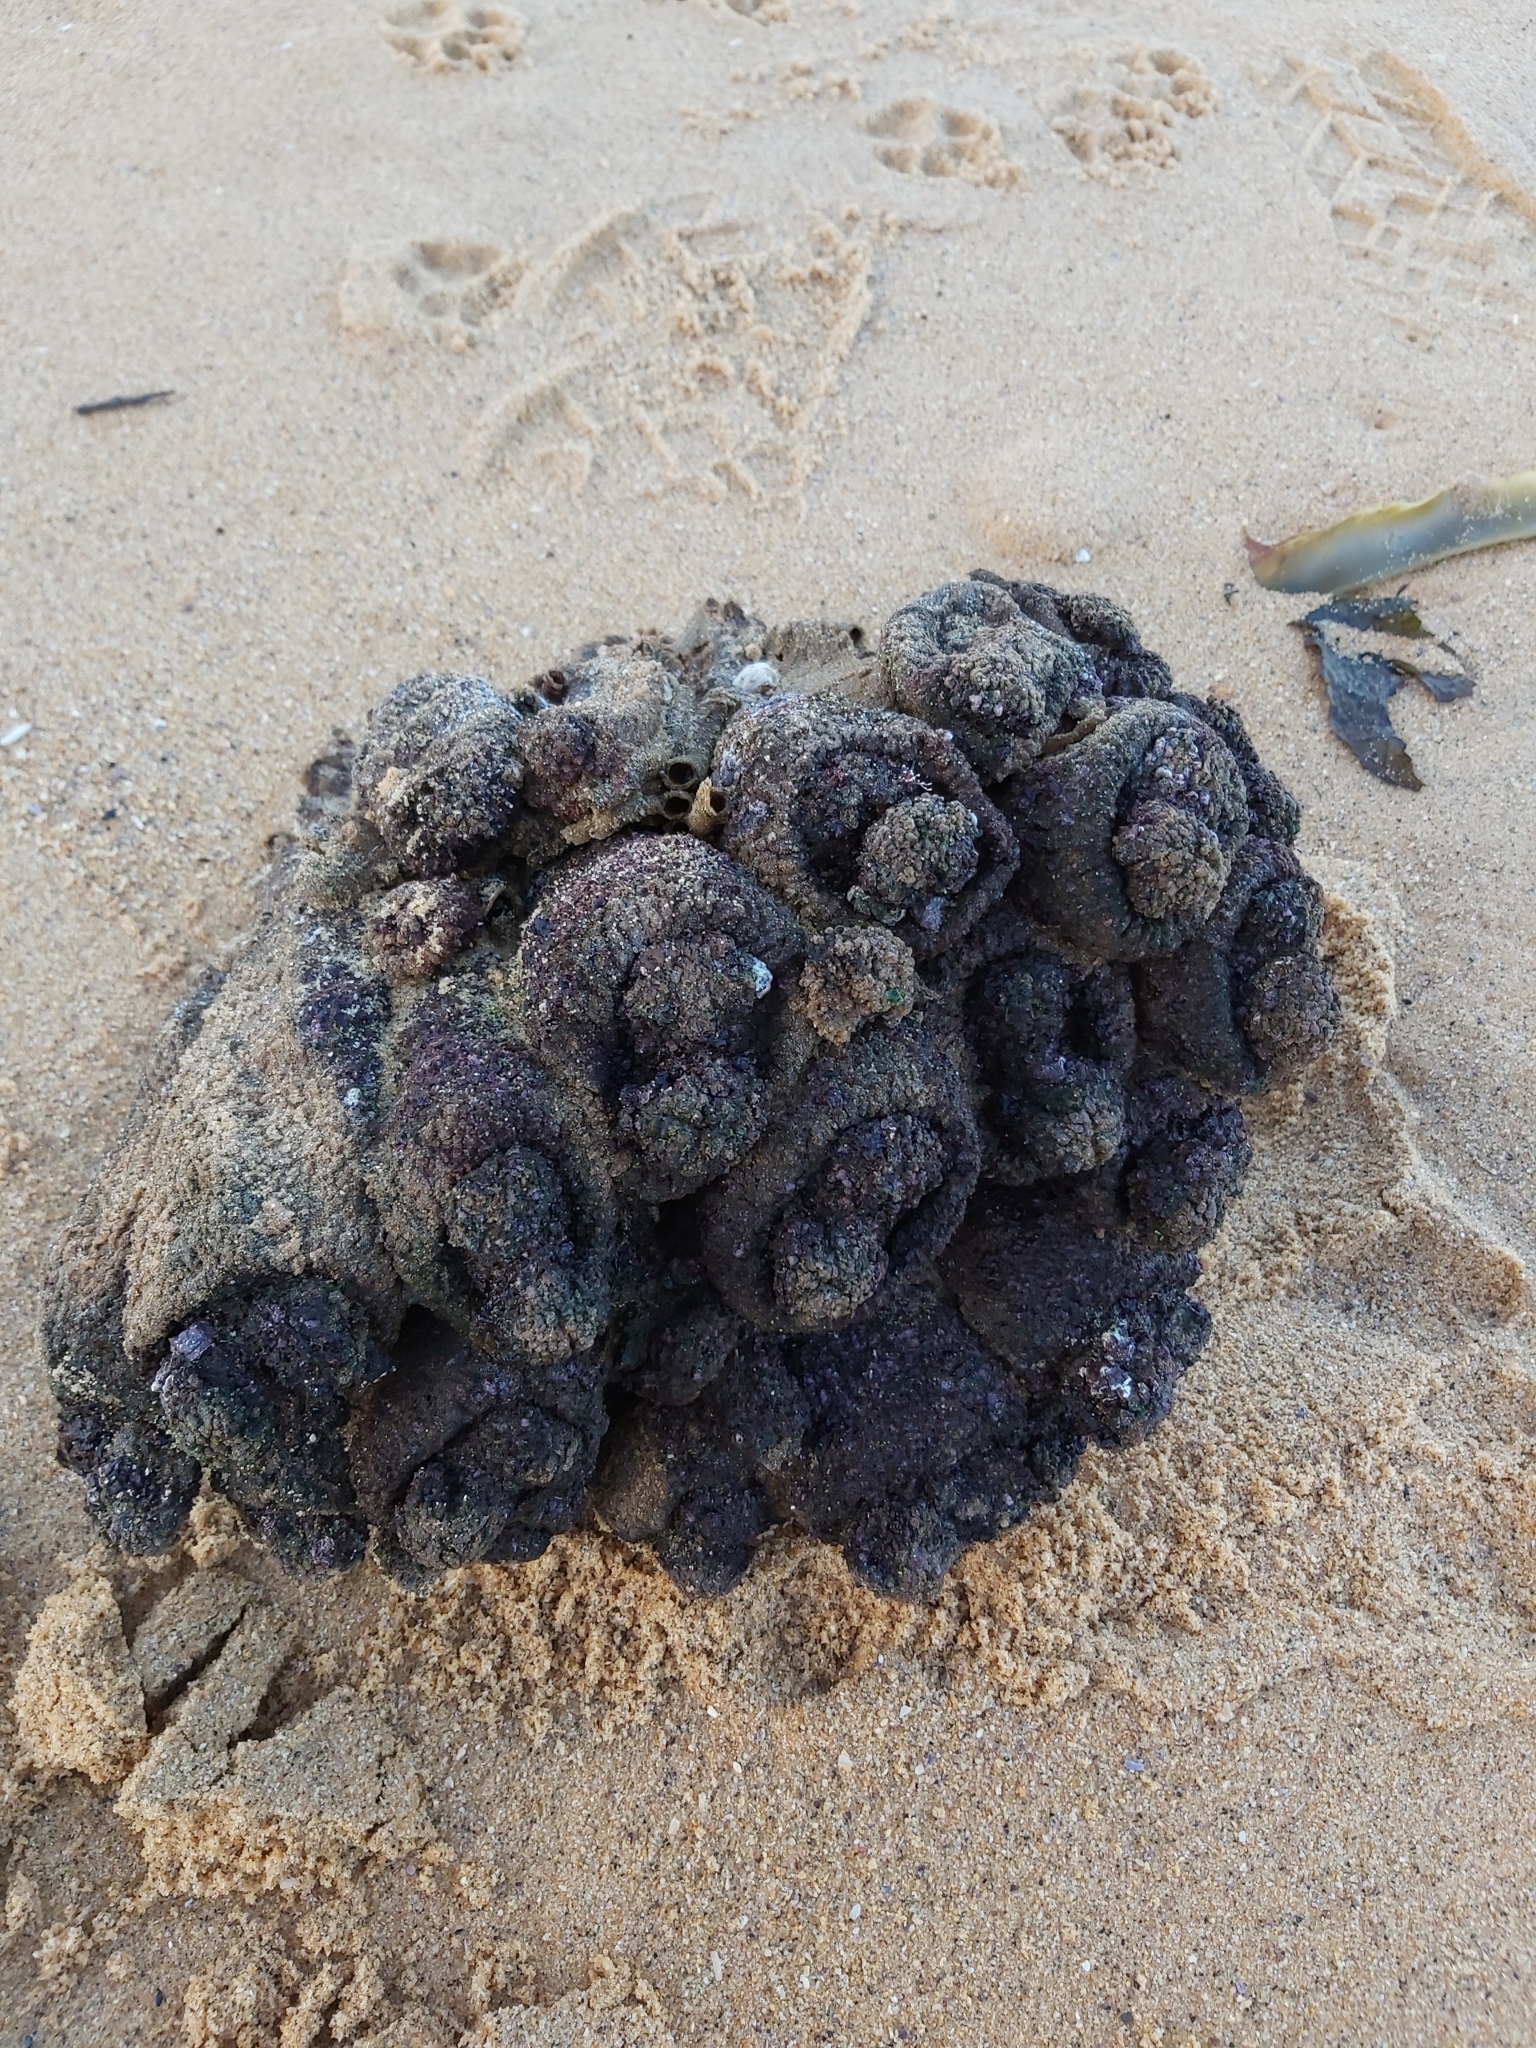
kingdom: Animalia
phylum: Chordata
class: Ascidiacea
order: Stolidobranchia
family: Pyuridae
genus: Pyura
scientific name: Pyura praeputialis
